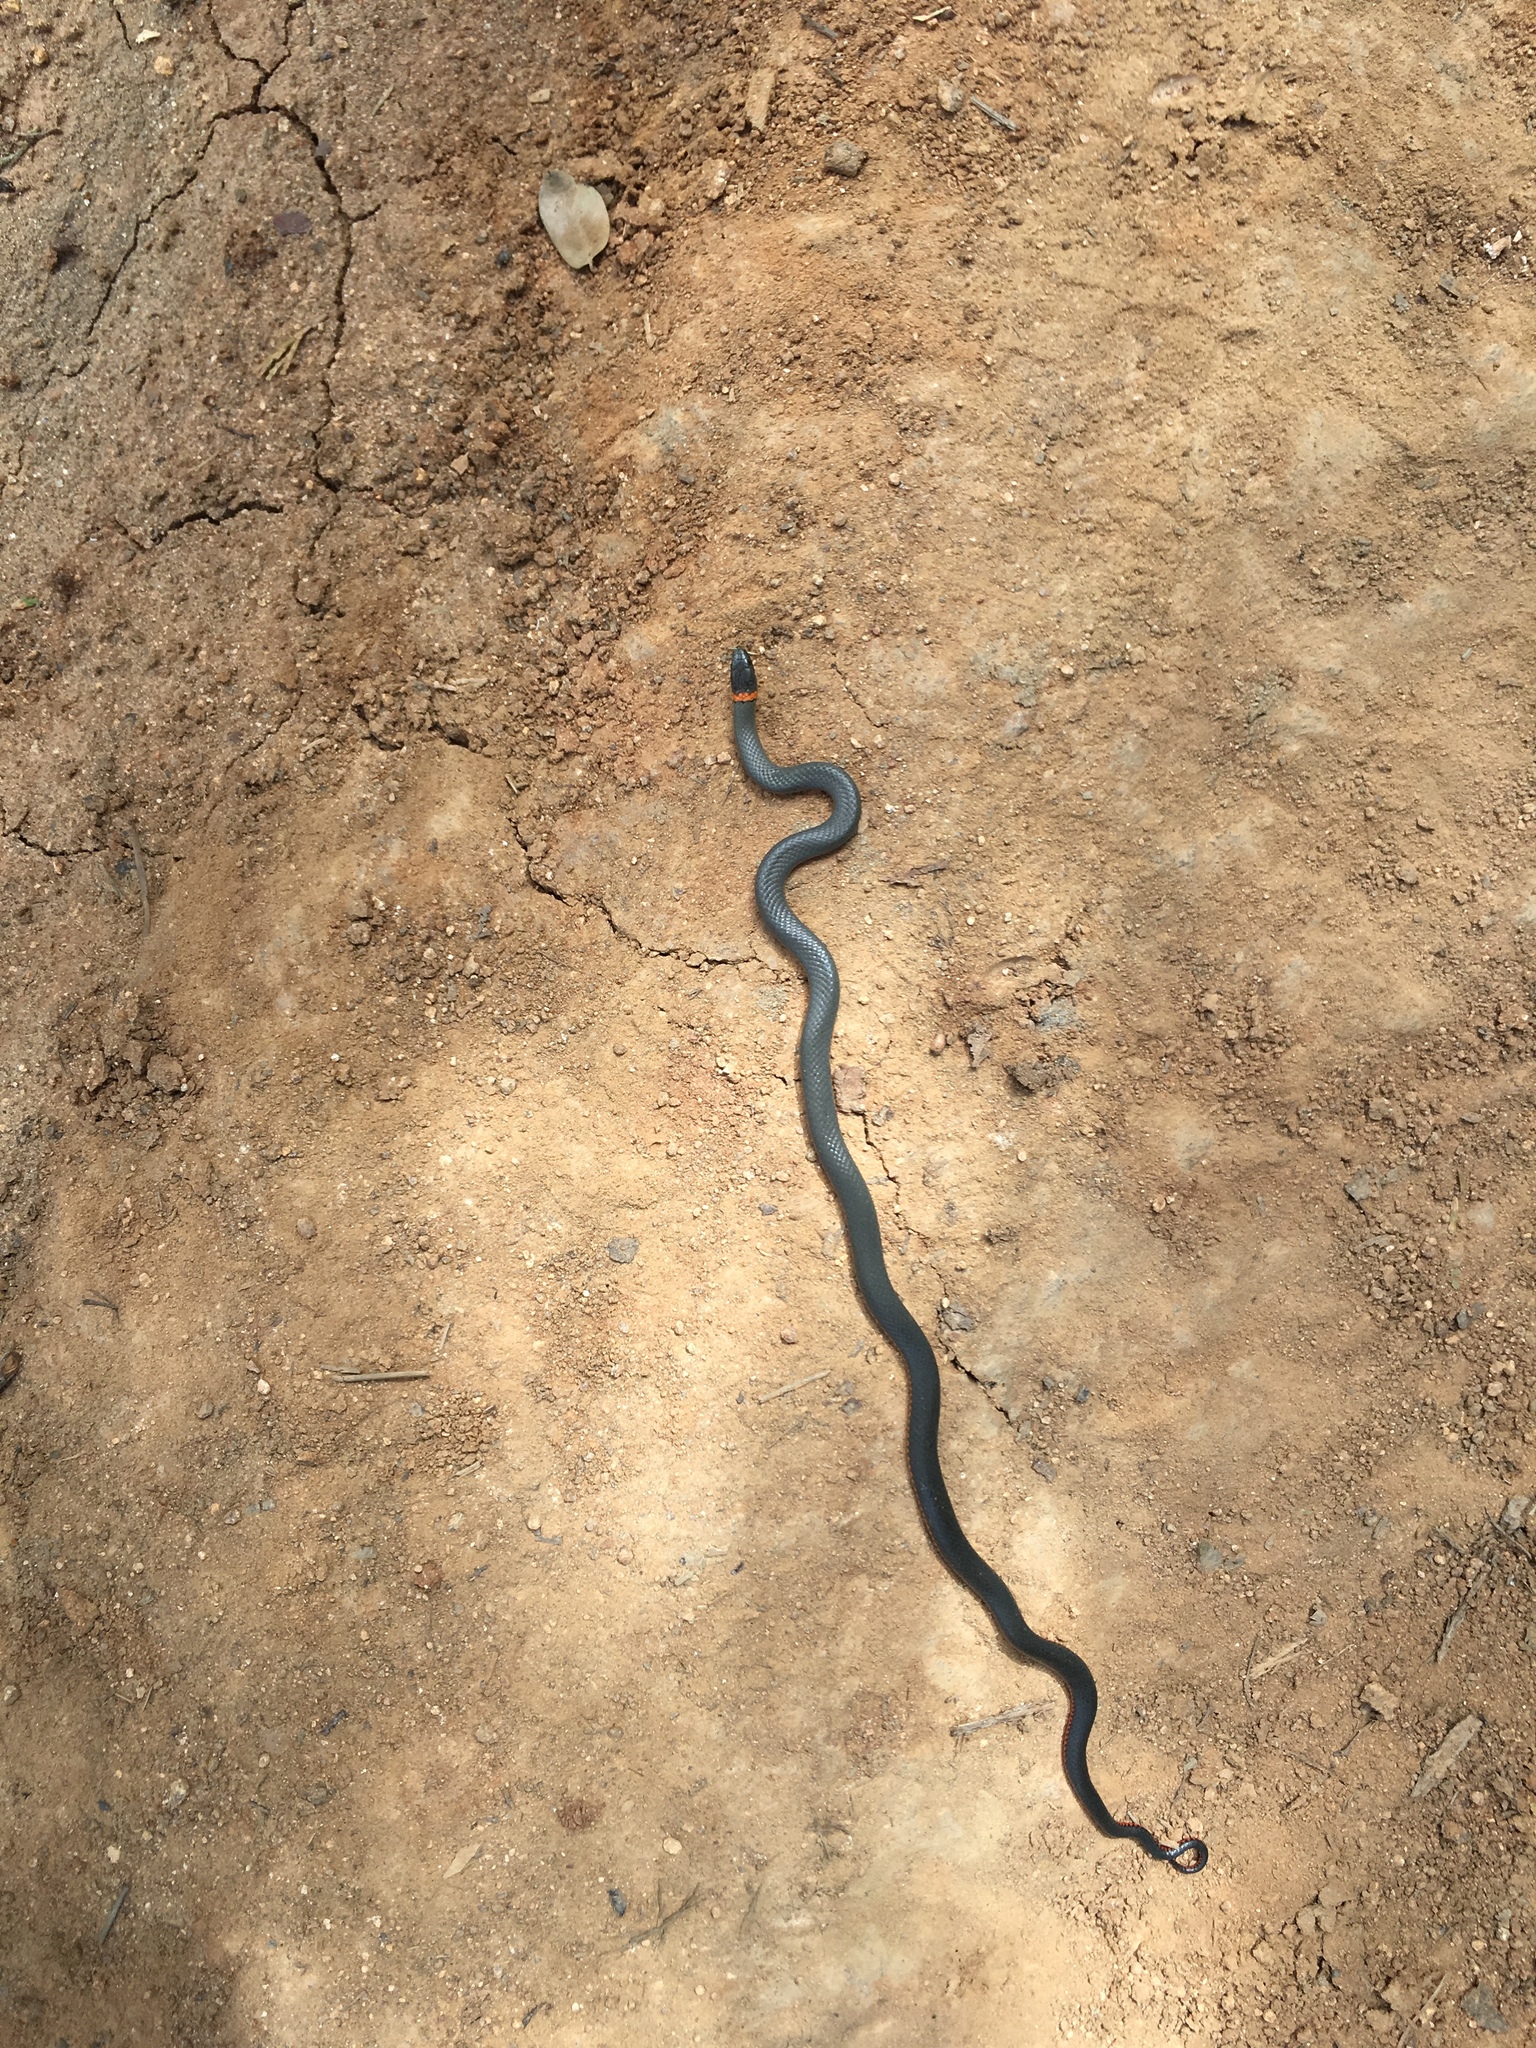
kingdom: Animalia
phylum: Chordata
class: Squamata
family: Colubridae
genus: Diadophis
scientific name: Diadophis punctatus
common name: Ringneck snake
